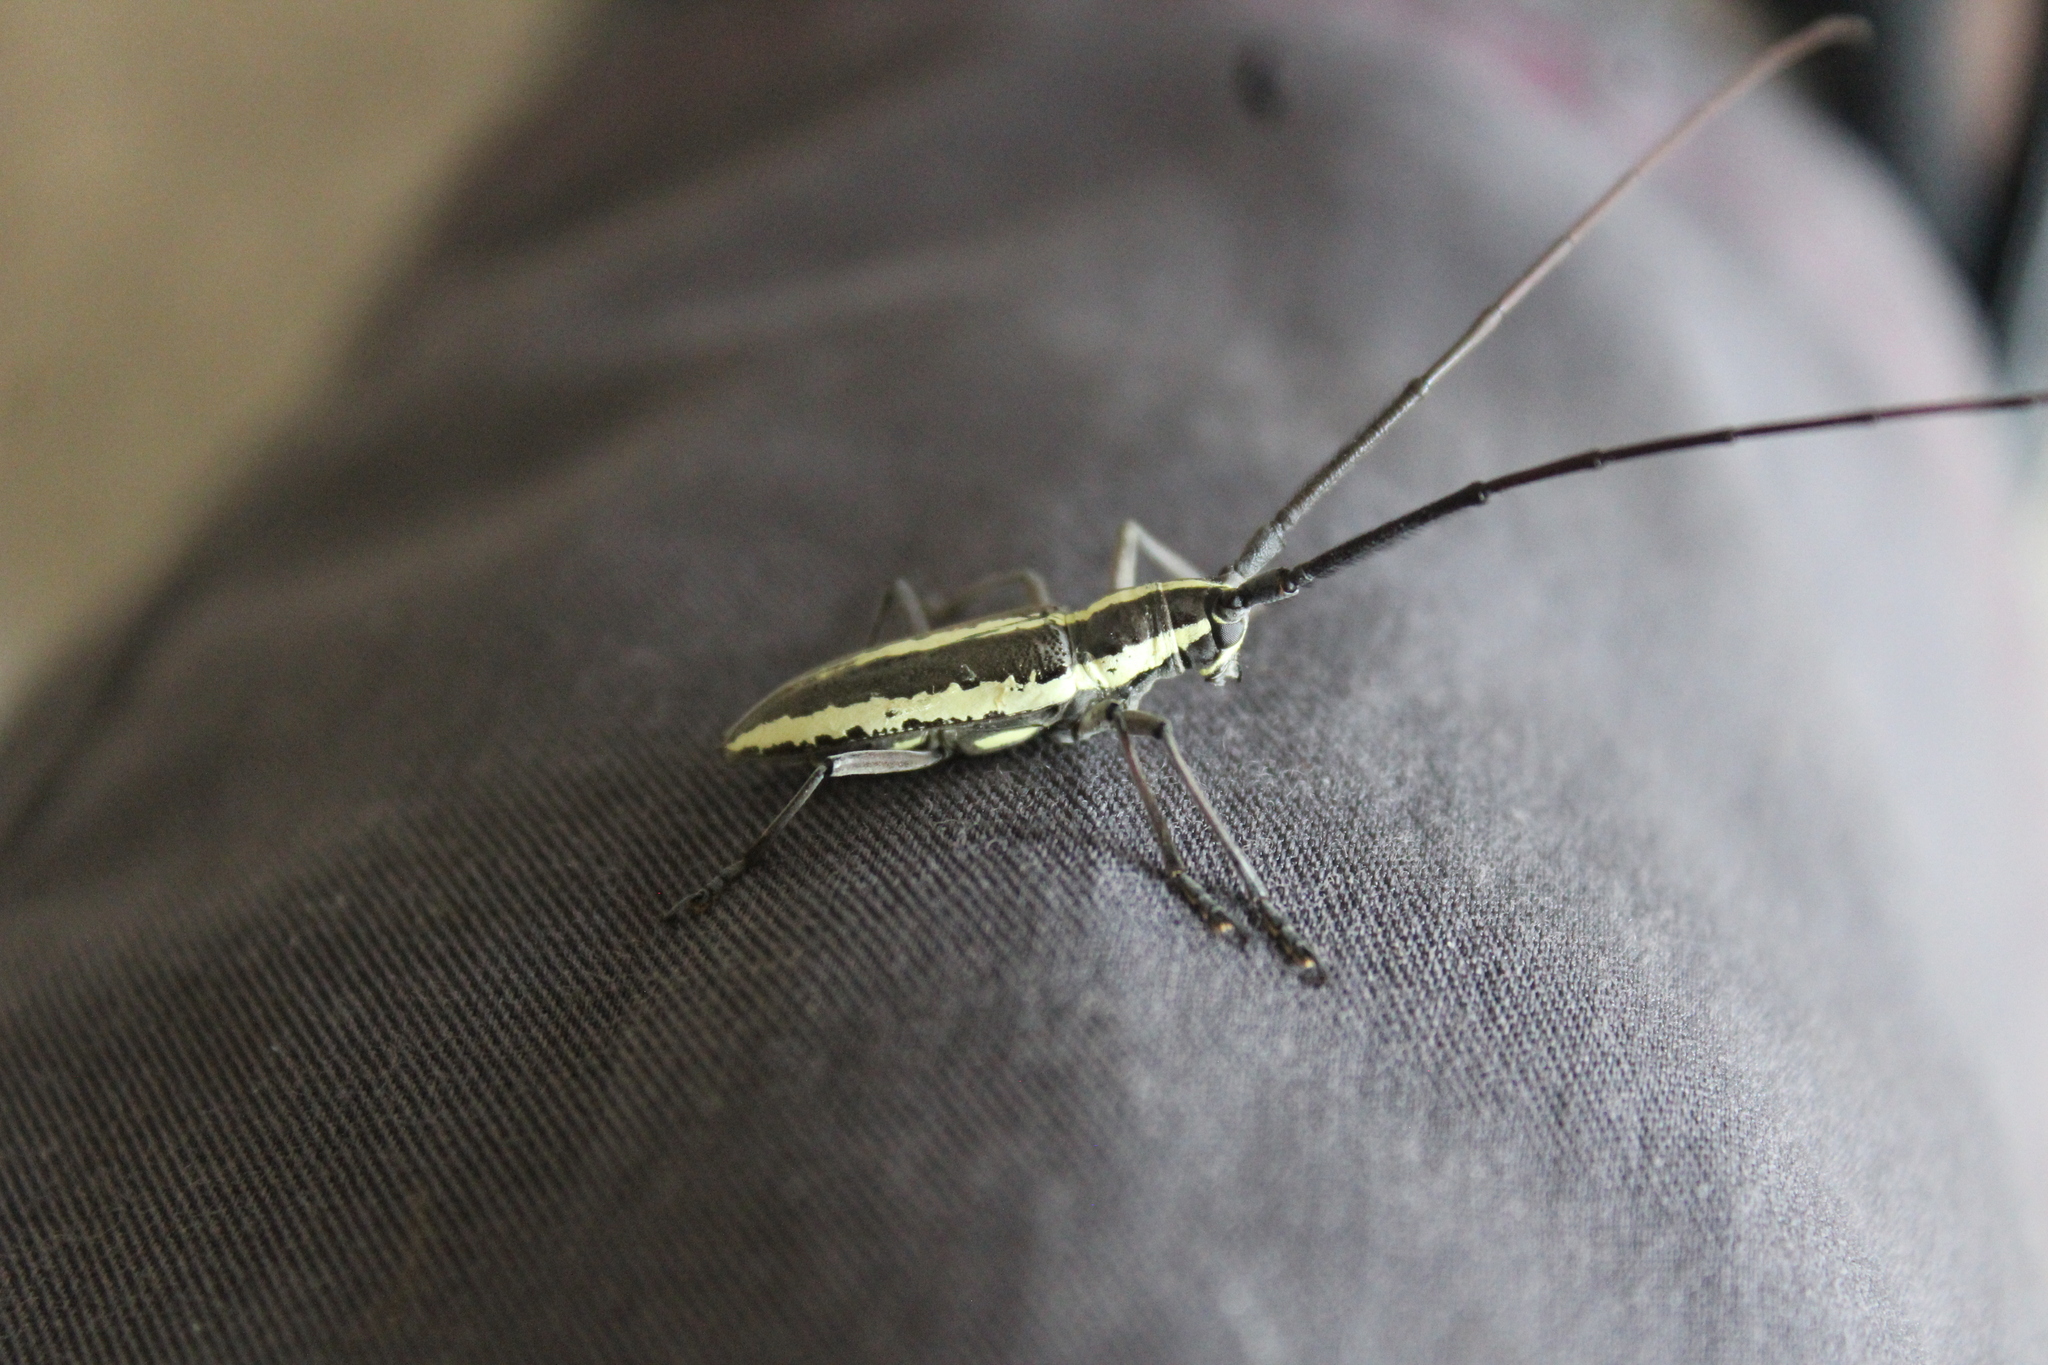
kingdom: Animalia
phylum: Arthropoda
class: Insecta
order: Coleoptera
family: Cerambycidae
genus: Neoptychodes
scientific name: Neoptychodes trilineatus
